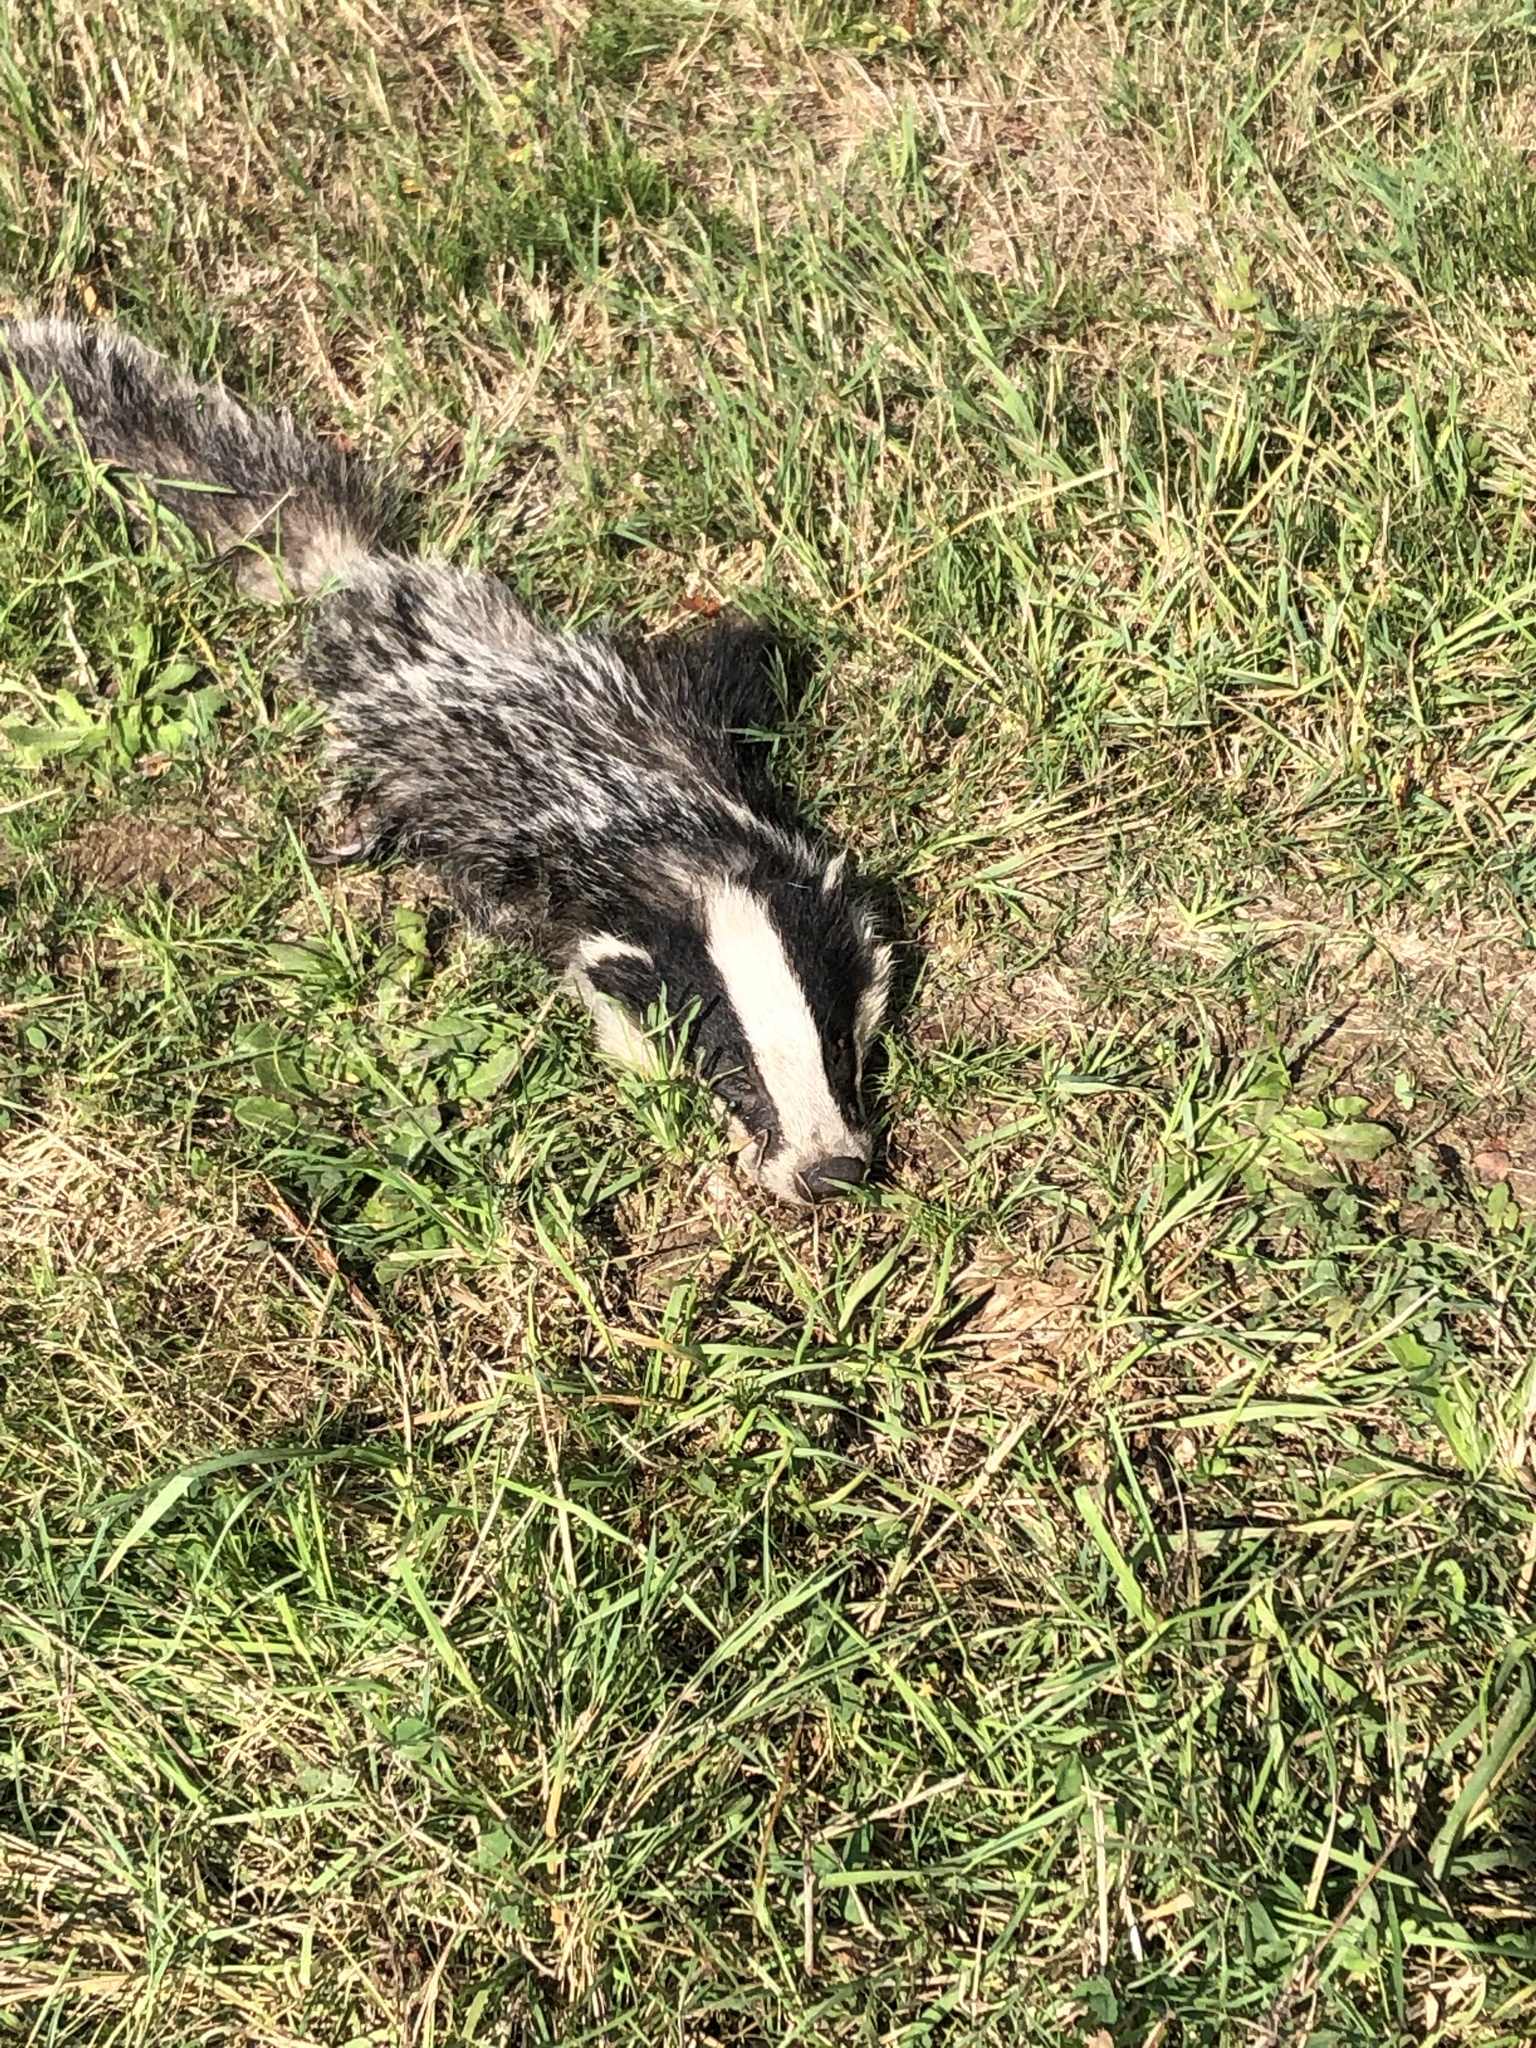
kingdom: Animalia
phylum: Chordata
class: Mammalia
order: Carnivora
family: Mustelidae
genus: Meles
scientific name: Meles meles
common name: Eurasian badger
